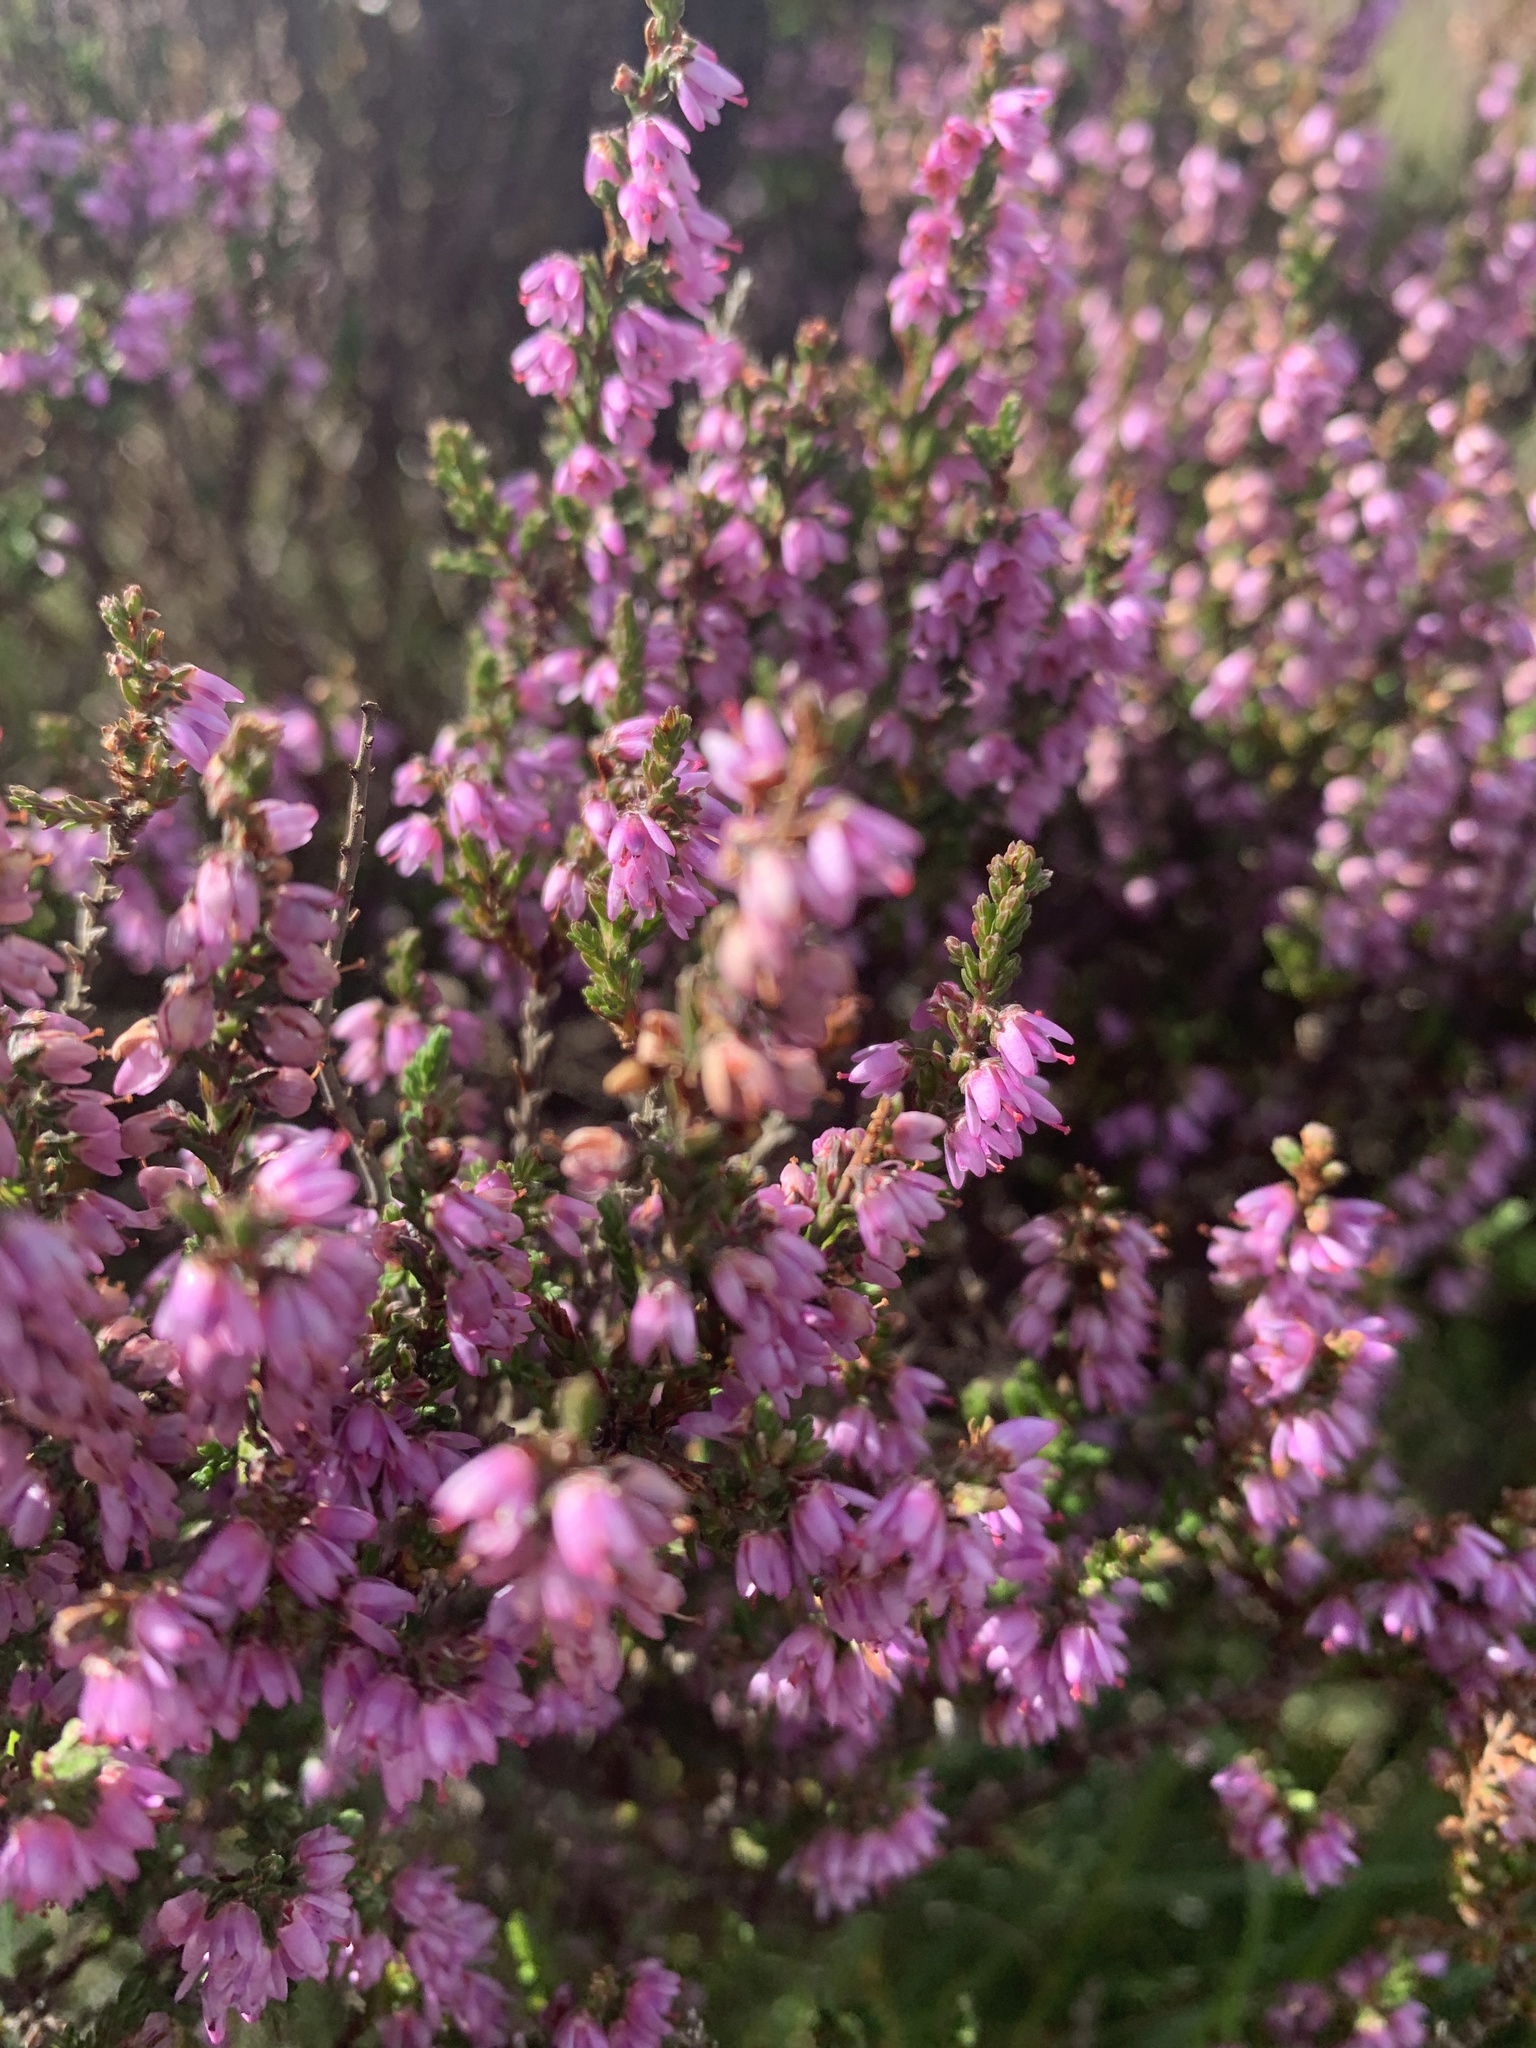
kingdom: Plantae
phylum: Tracheophyta
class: Magnoliopsida
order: Ericales
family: Ericaceae
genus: Calluna
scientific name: Calluna vulgaris
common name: Heather
